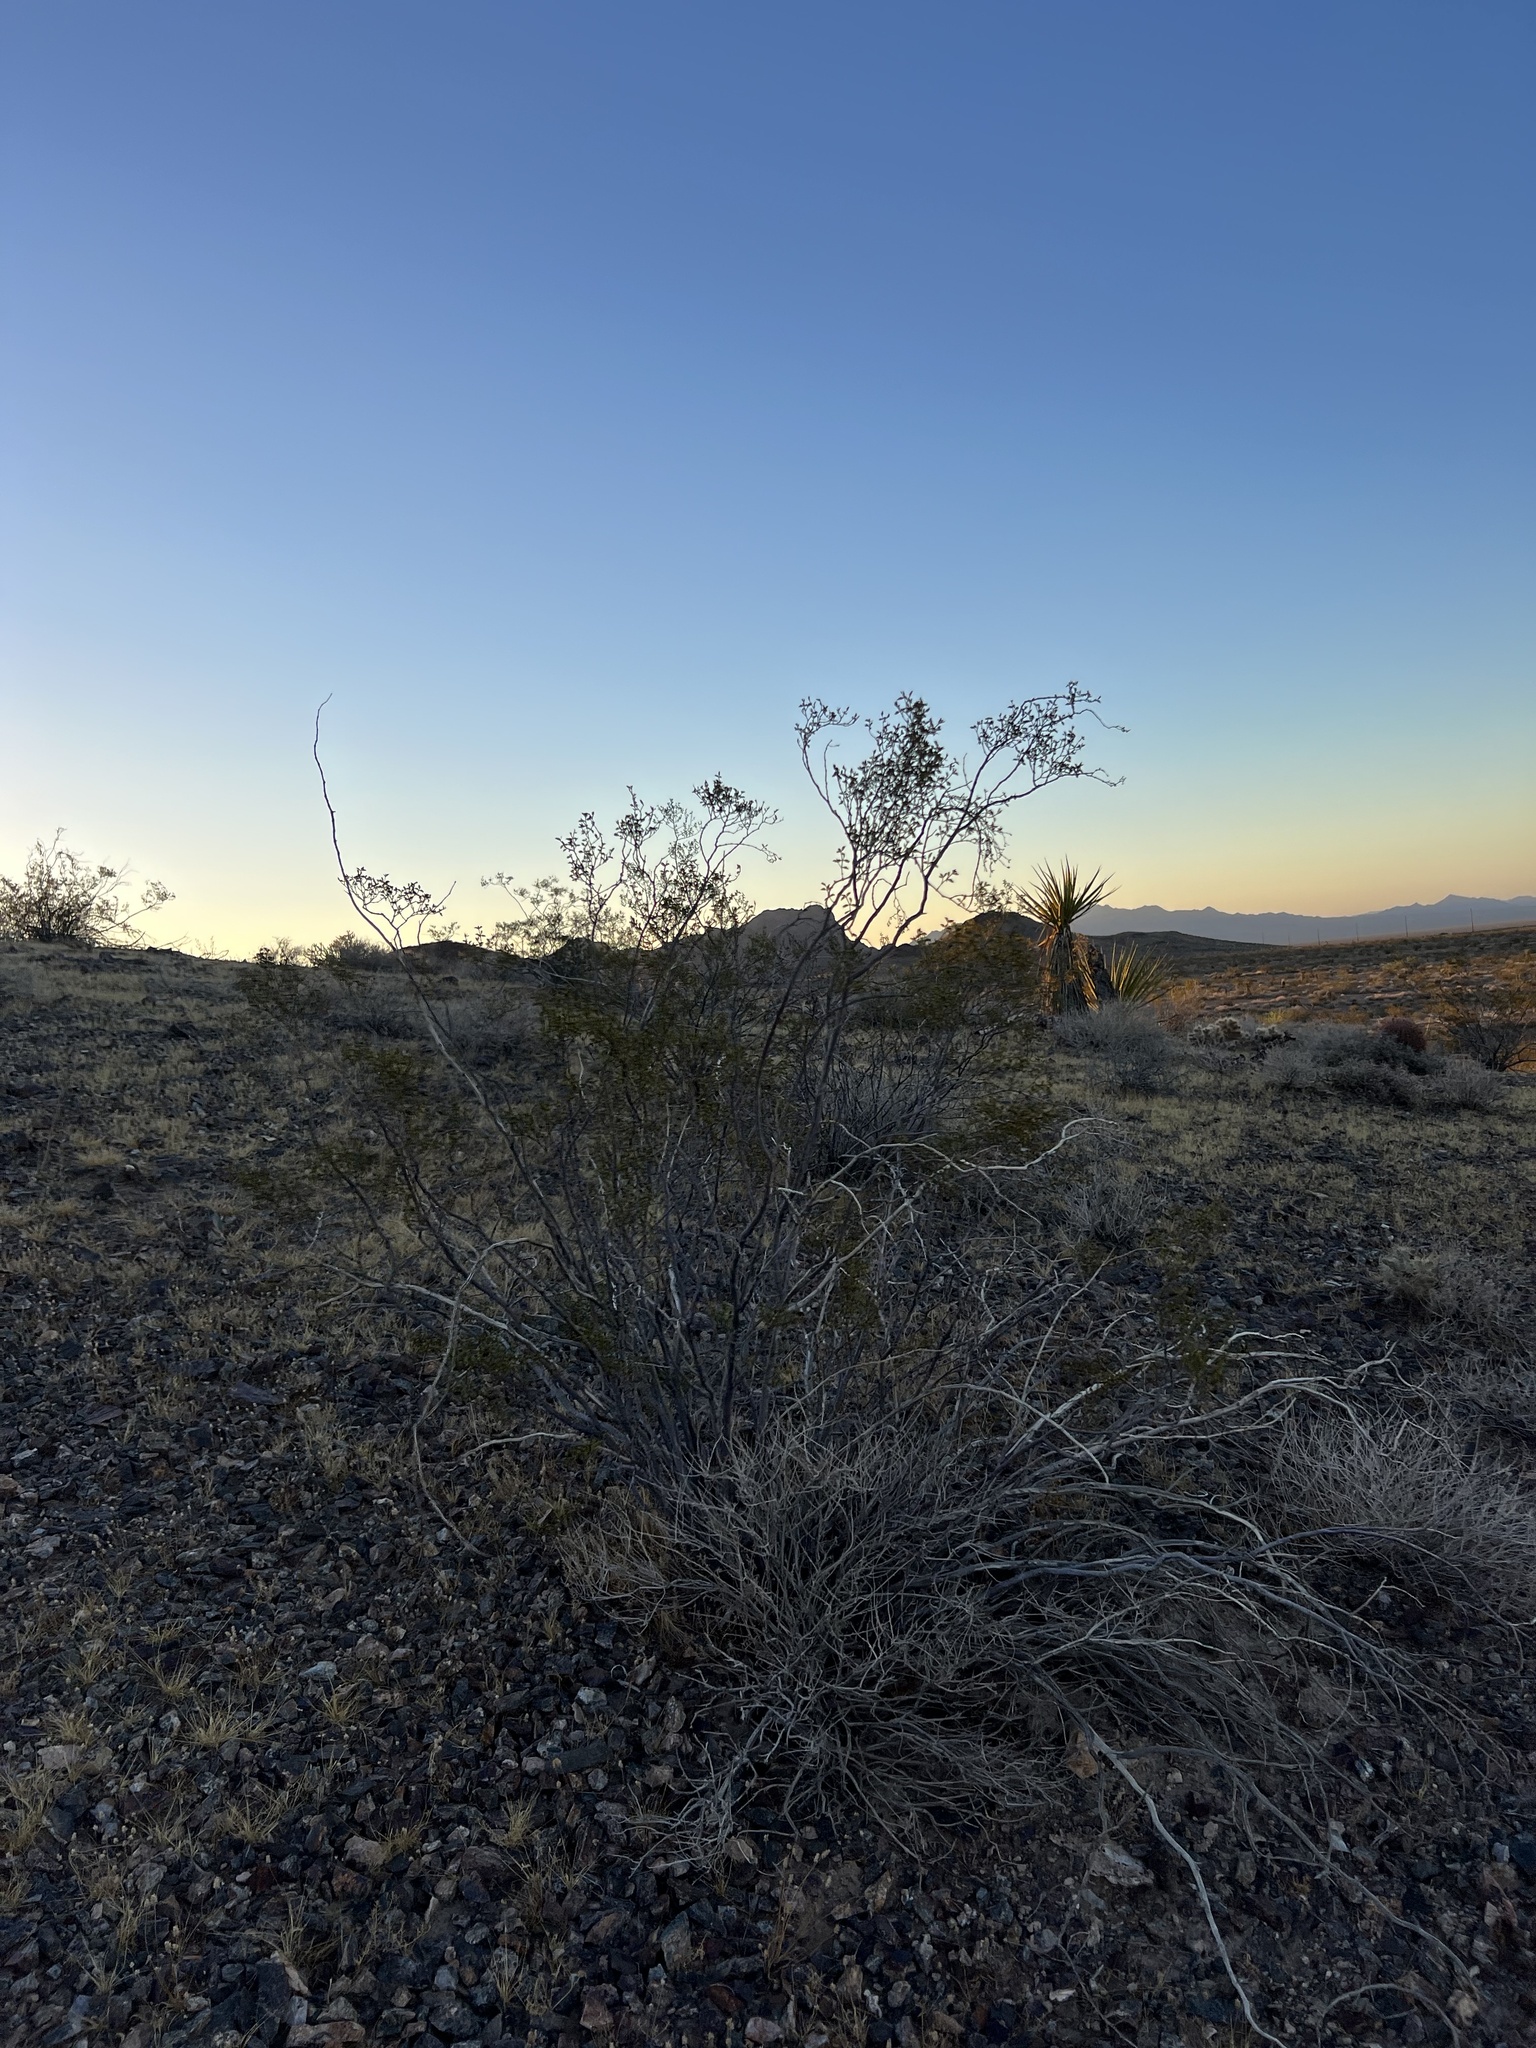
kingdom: Plantae
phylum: Tracheophyta
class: Magnoliopsida
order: Zygophyllales
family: Zygophyllaceae
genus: Larrea
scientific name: Larrea tridentata
